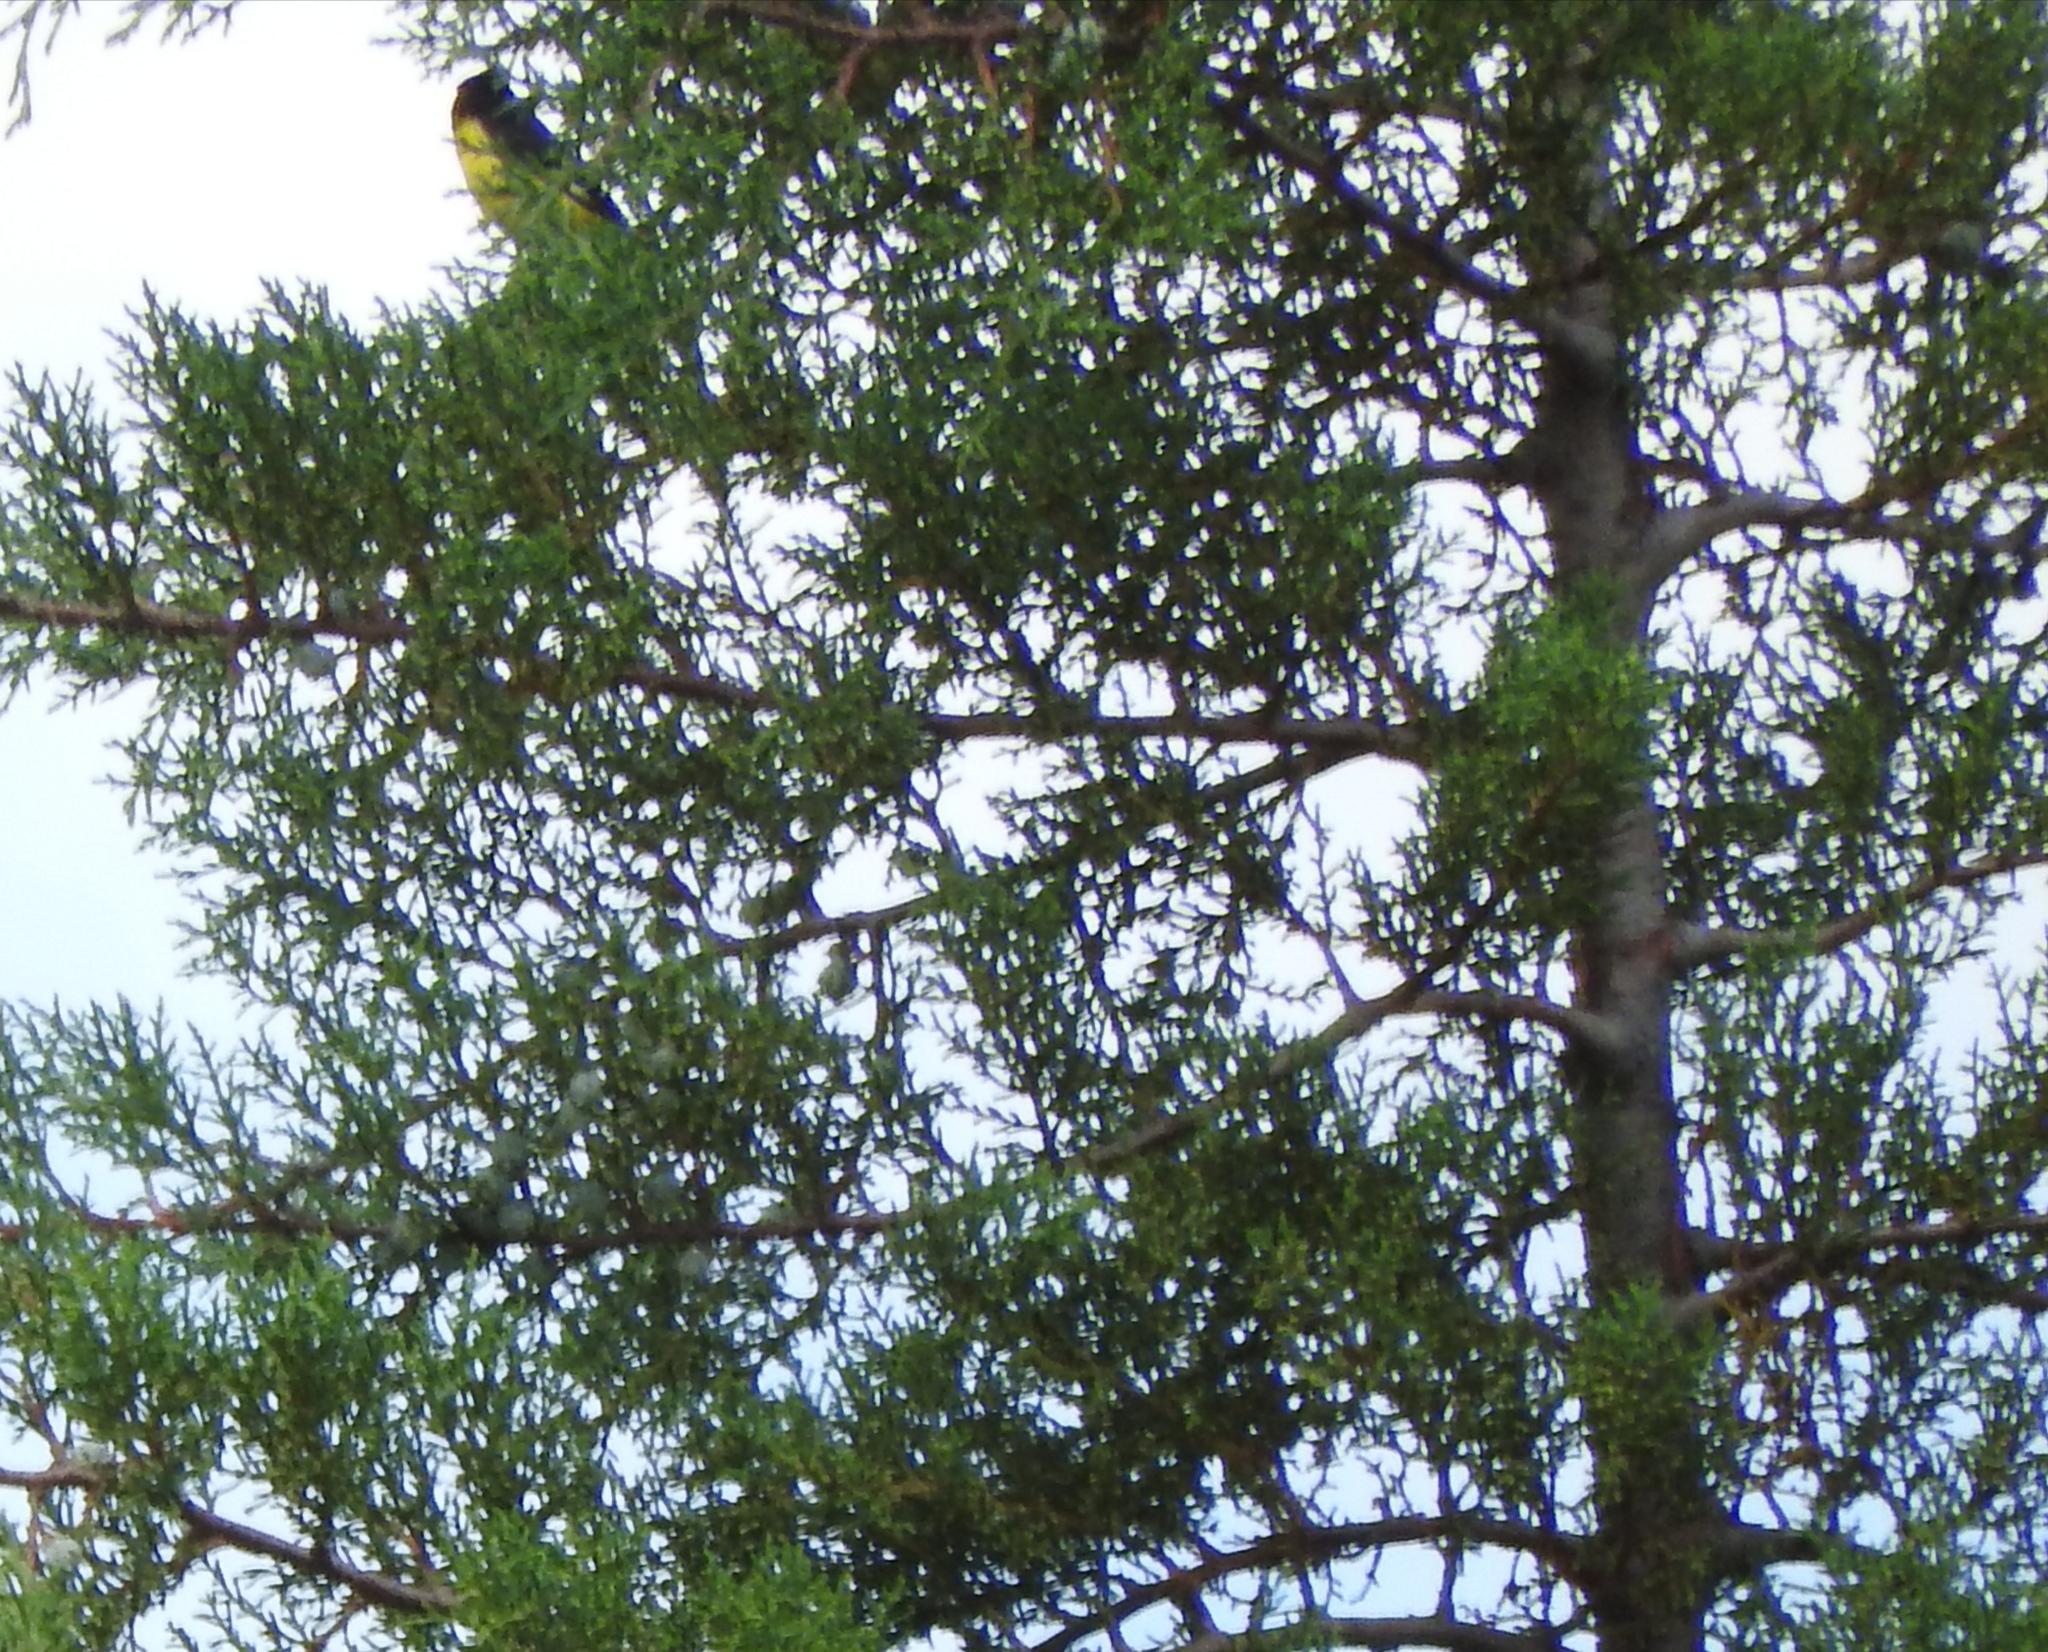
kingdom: Animalia
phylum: Chordata
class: Aves
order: Passeriformes
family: Fringillidae
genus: Spinus
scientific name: Spinus psaltria
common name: Lesser goldfinch
